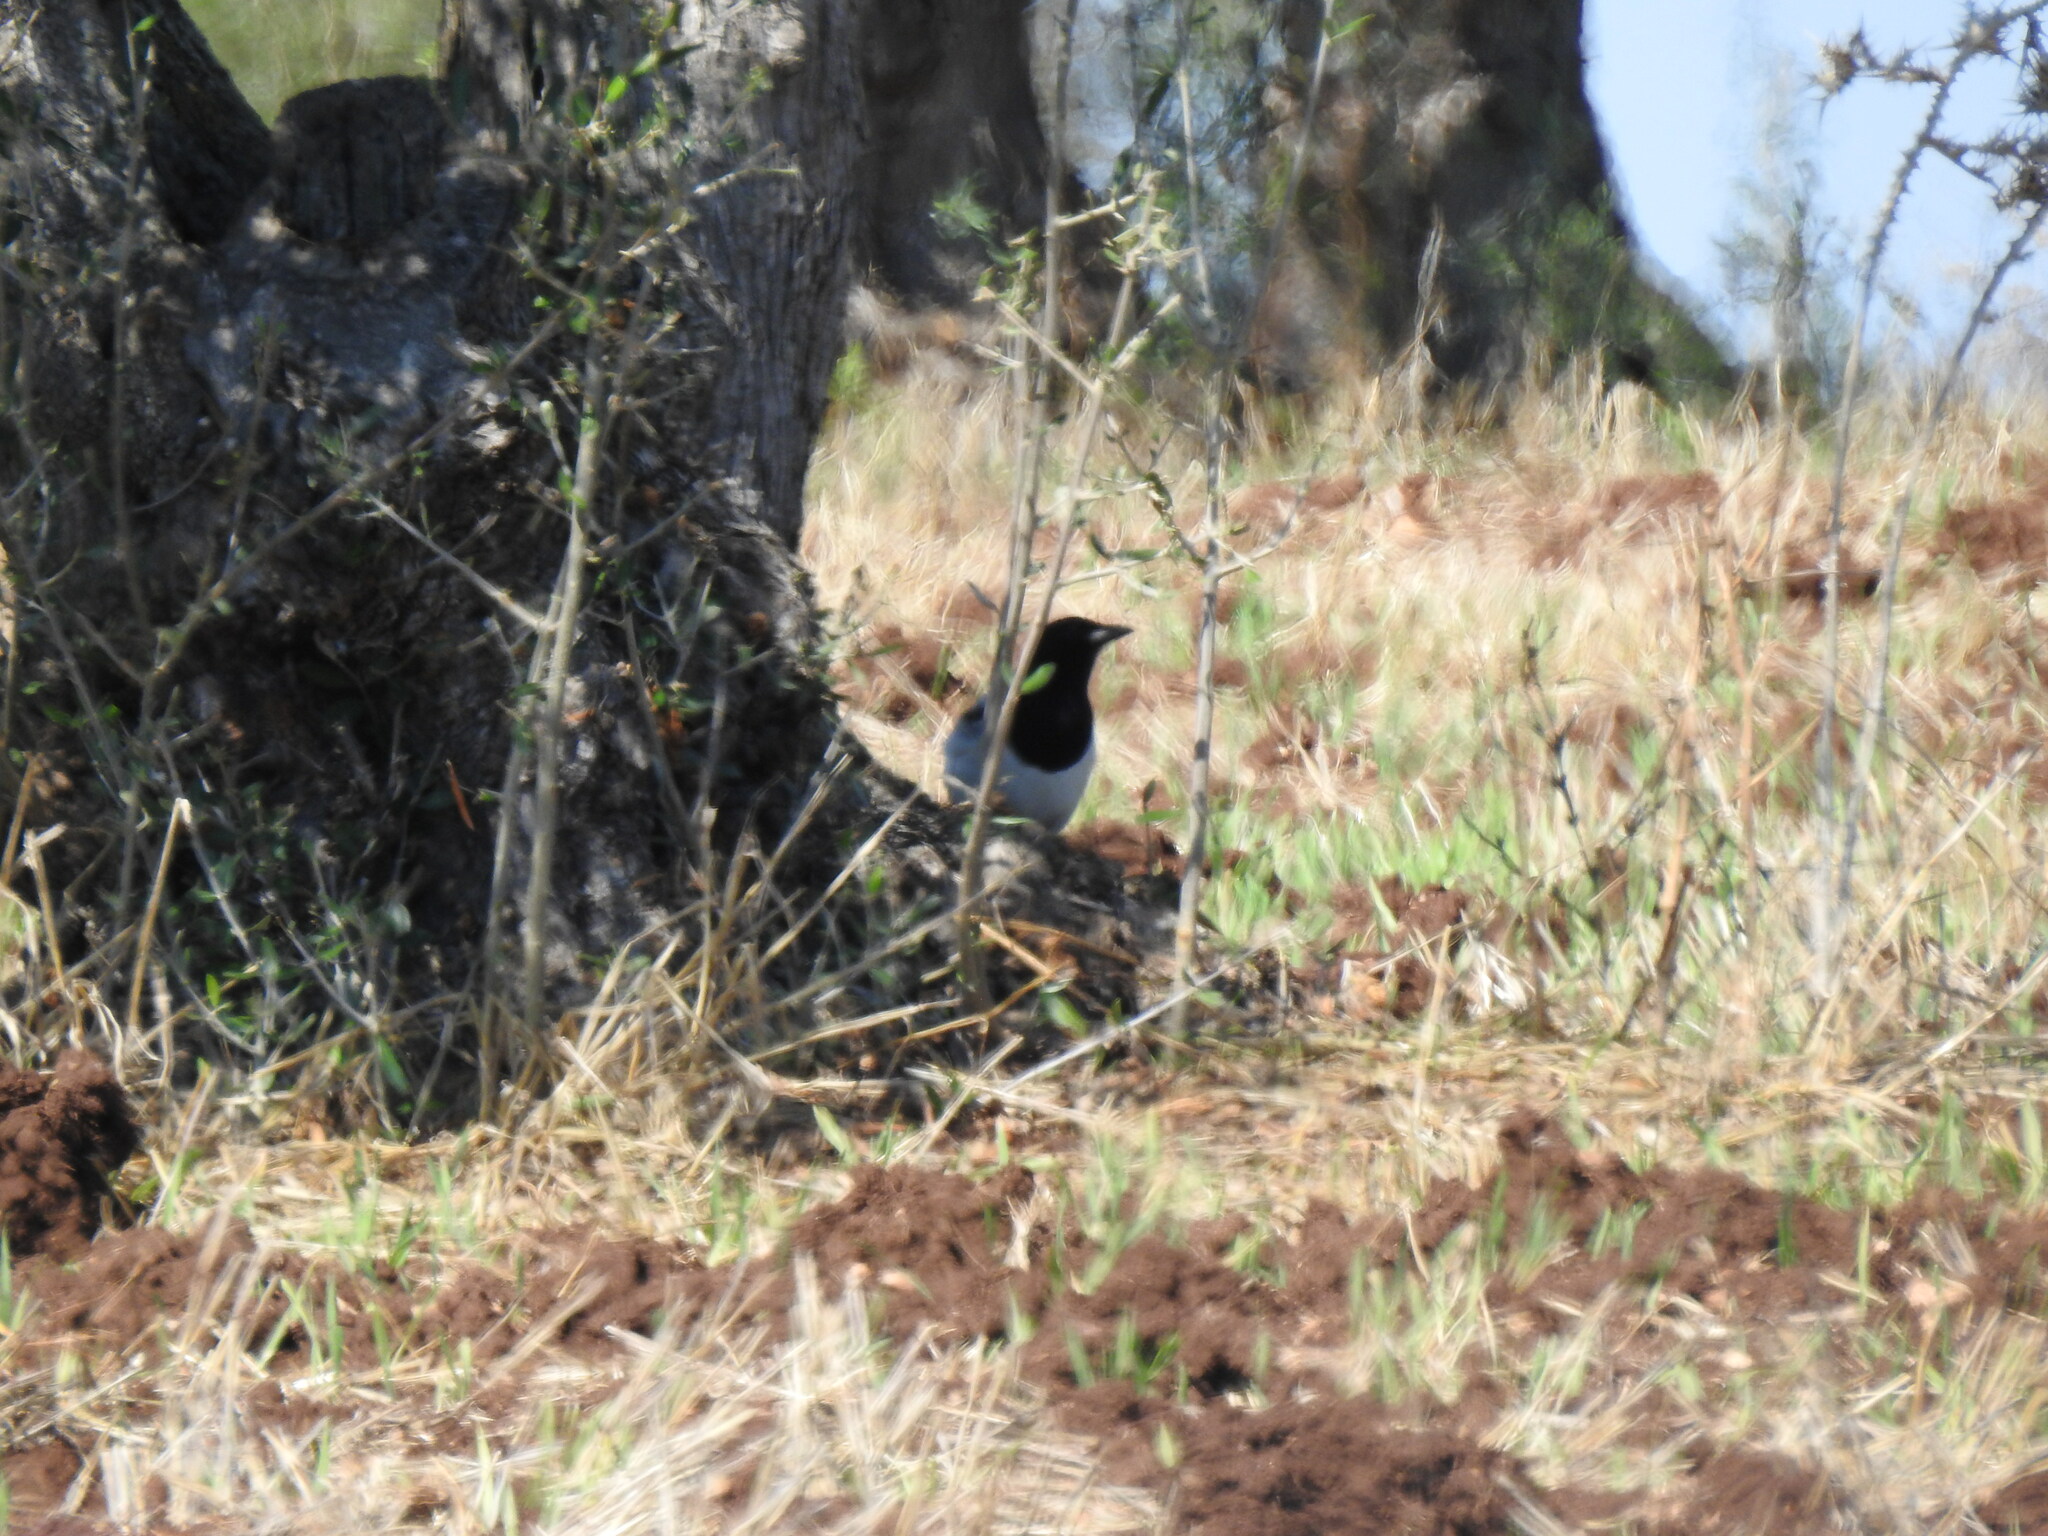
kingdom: Animalia
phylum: Chordata
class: Aves
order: Passeriformes
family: Corvidae
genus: Pica
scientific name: Pica pica
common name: Eurasian magpie
